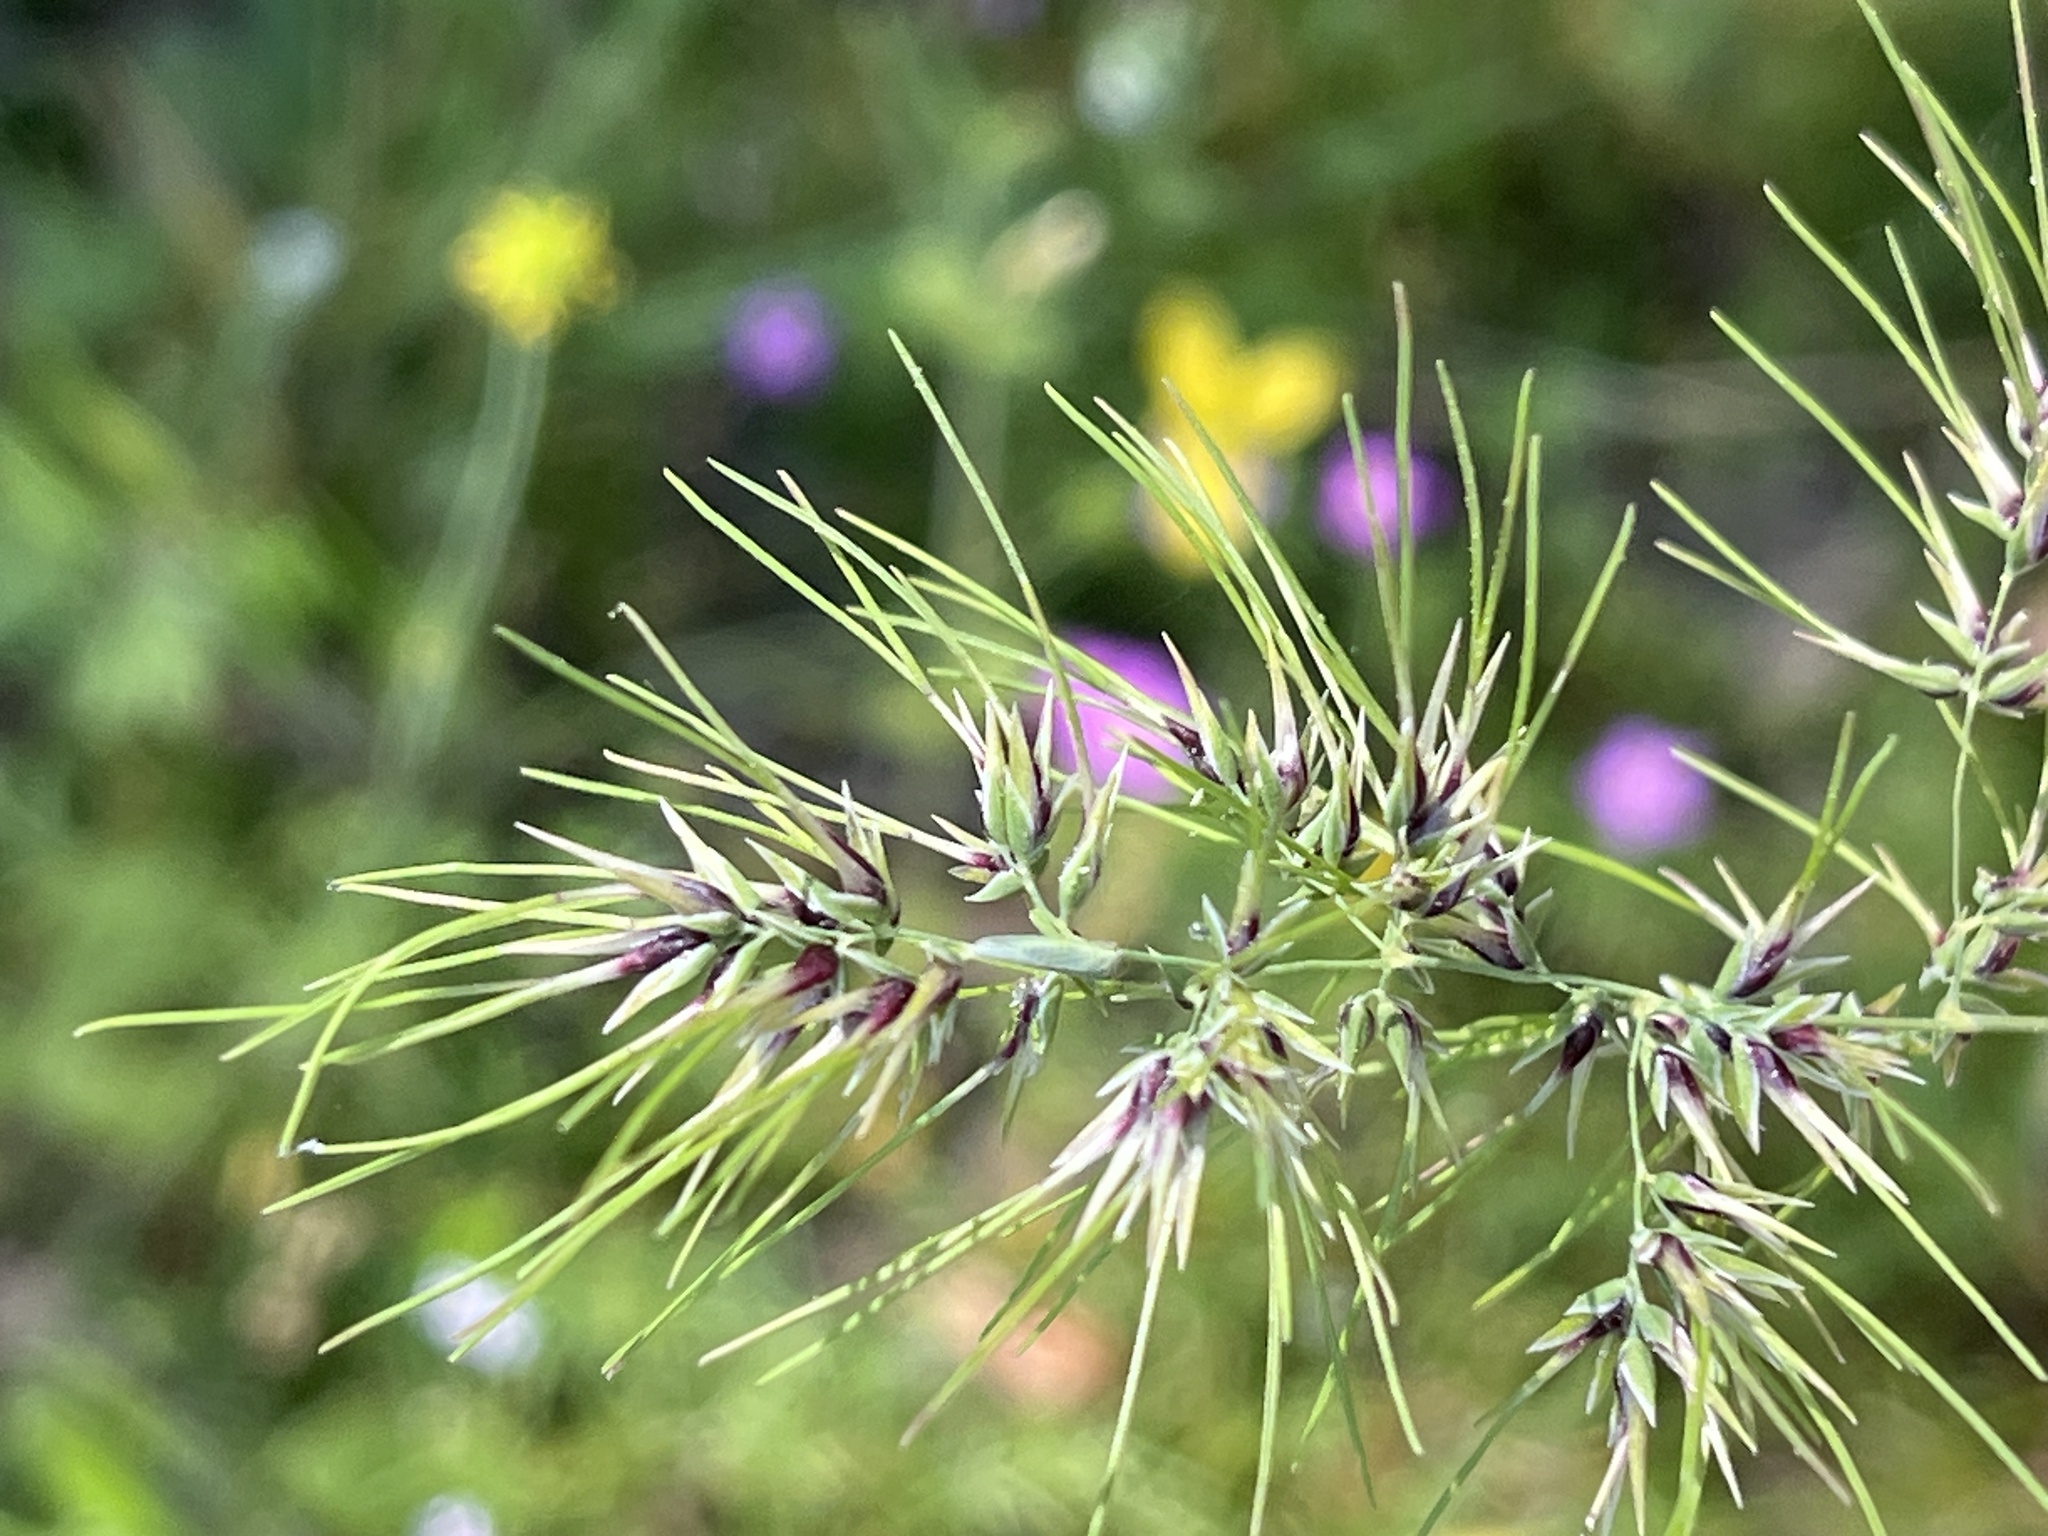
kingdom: Plantae
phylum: Tracheophyta
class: Magnoliopsida
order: Gentianales
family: Rubiaceae
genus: Sherardia
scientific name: Sherardia arvensis
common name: Field madder
